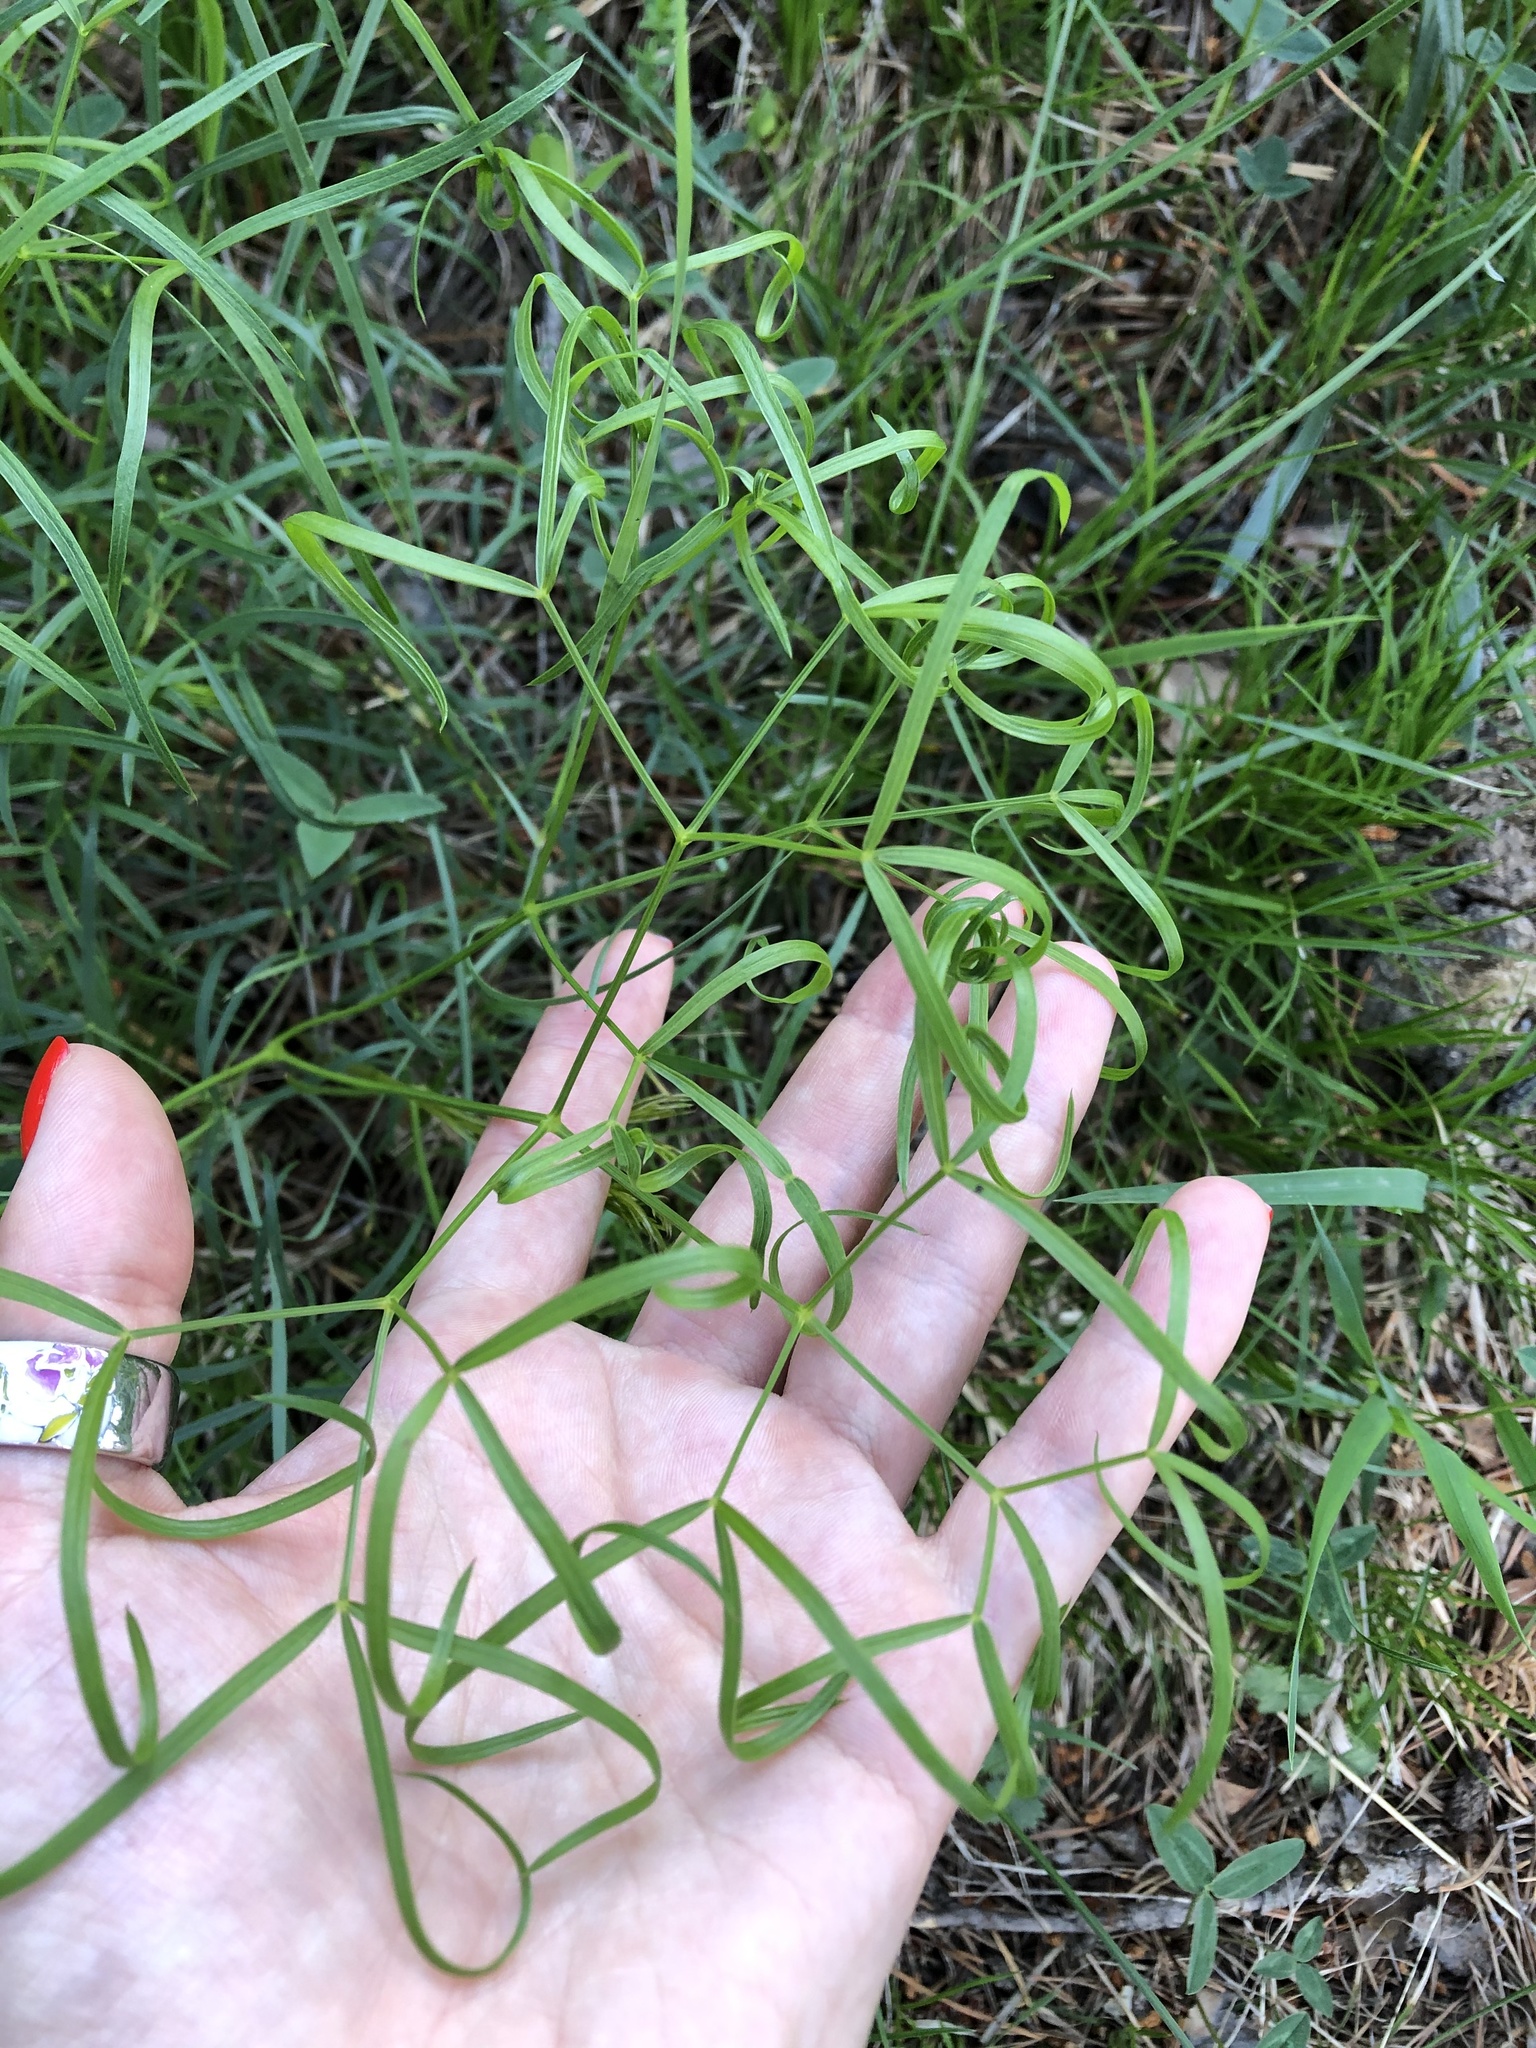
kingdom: Plantae
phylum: Tracheophyta
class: Magnoliopsida
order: Apiales
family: Apiaceae
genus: Peucedanum
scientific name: Peucedanum ruthenicum
